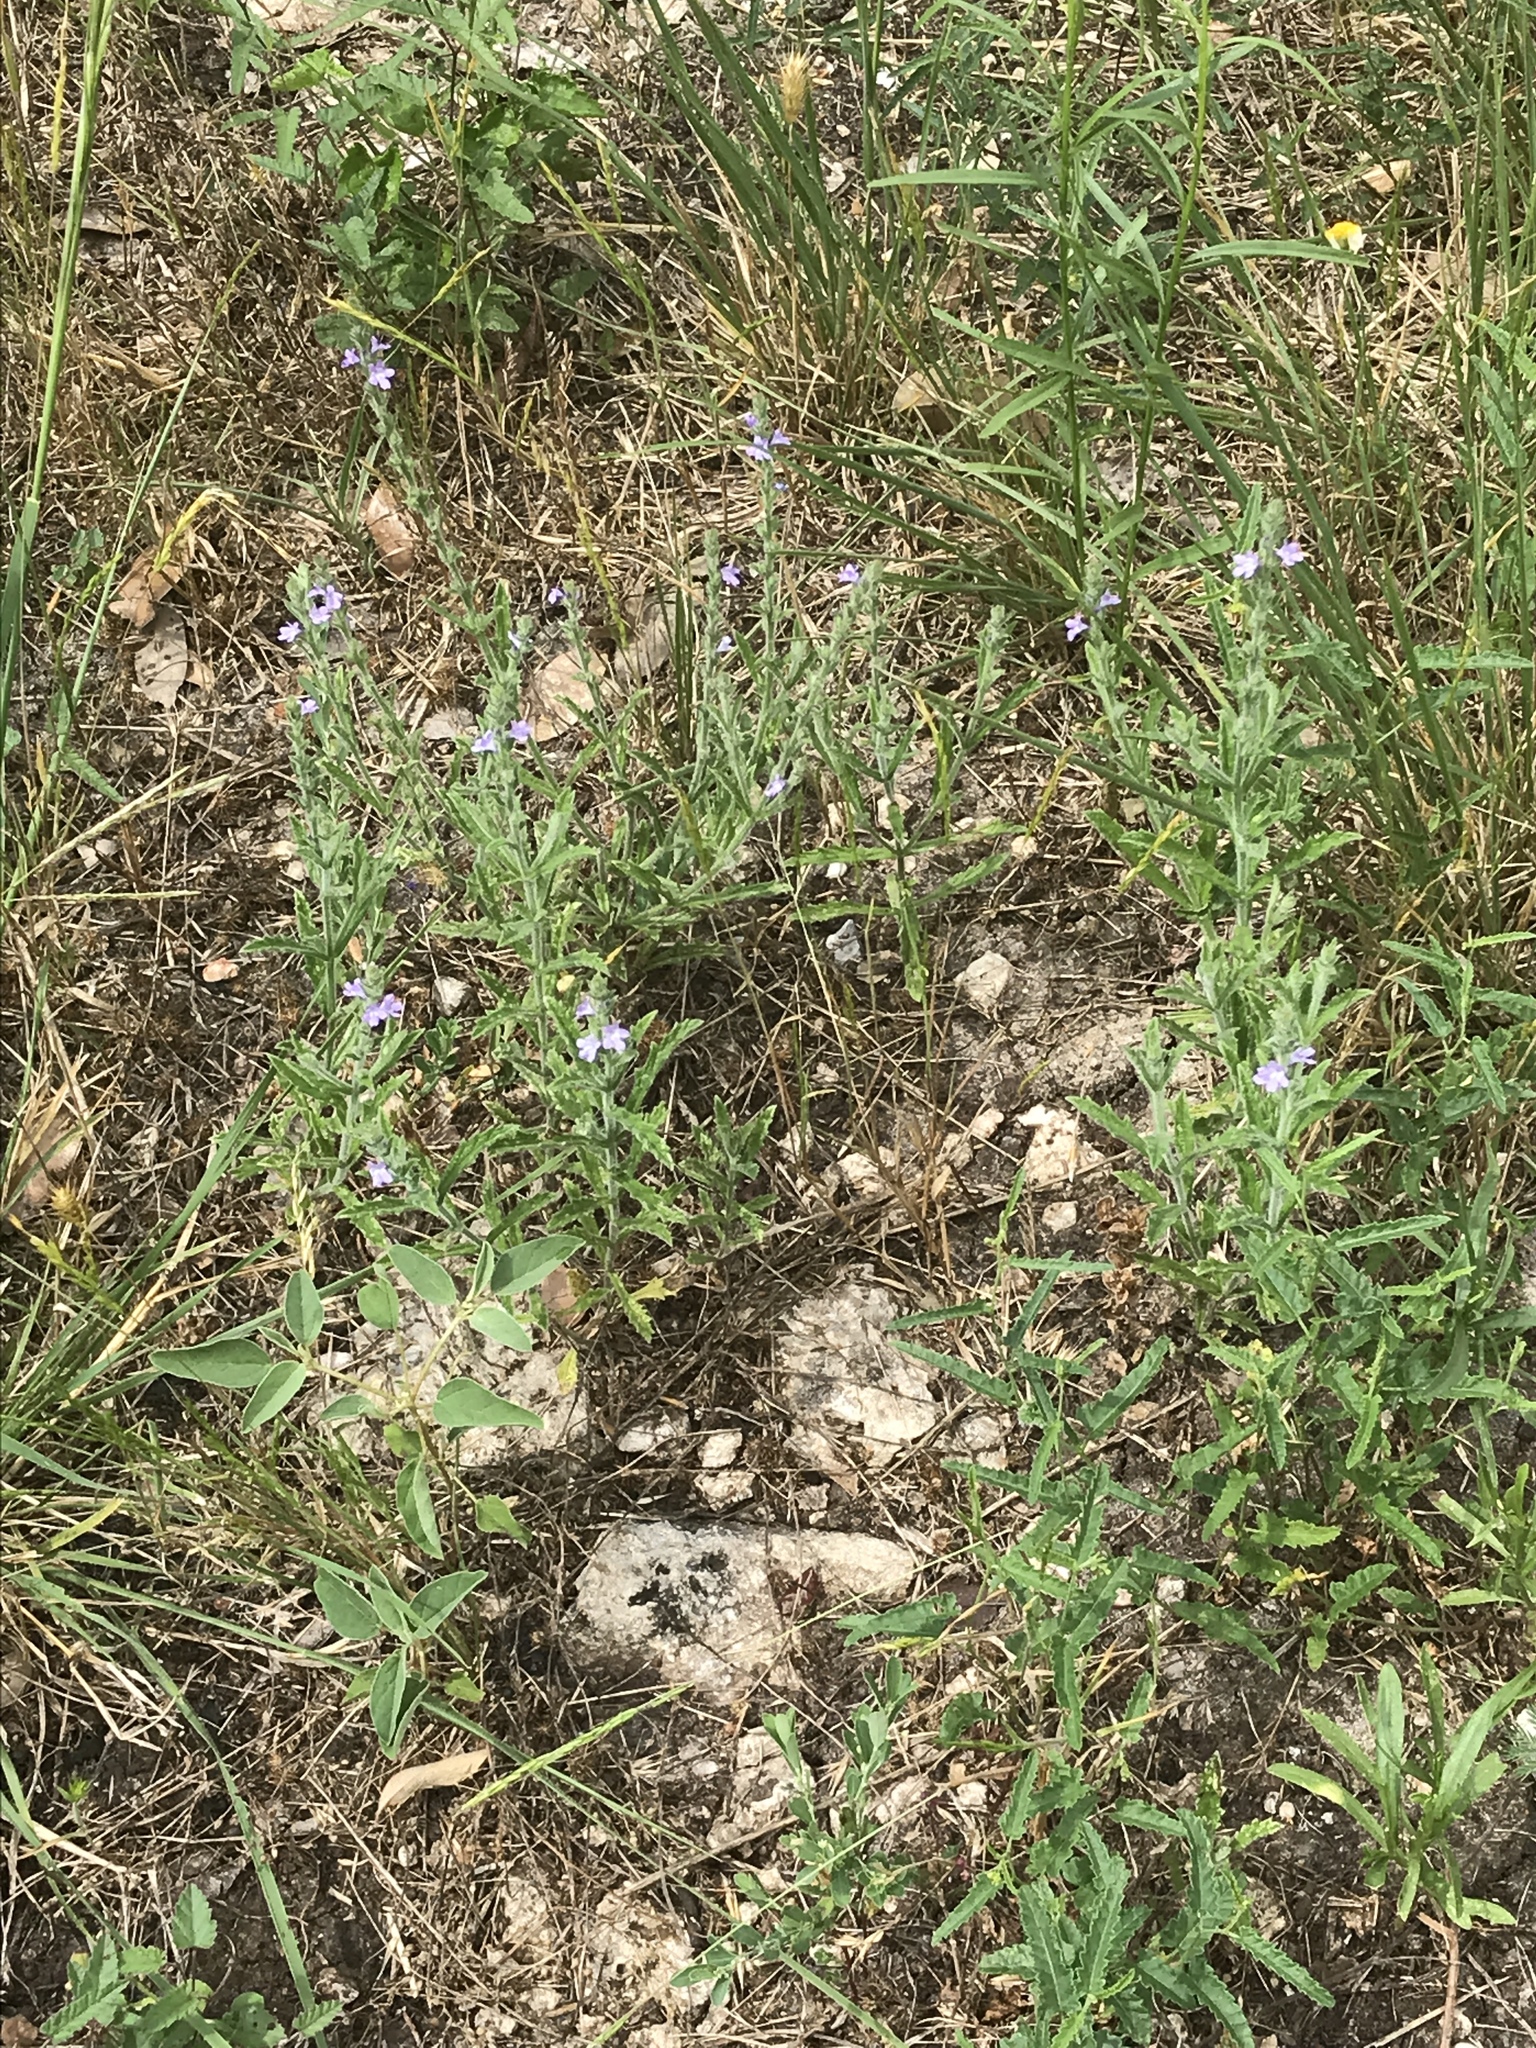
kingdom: Plantae
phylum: Tracheophyta
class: Magnoliopsida
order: Lamiales
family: Verbenaceae
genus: Verbena
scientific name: Verbena canescens
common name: Gray vervain
